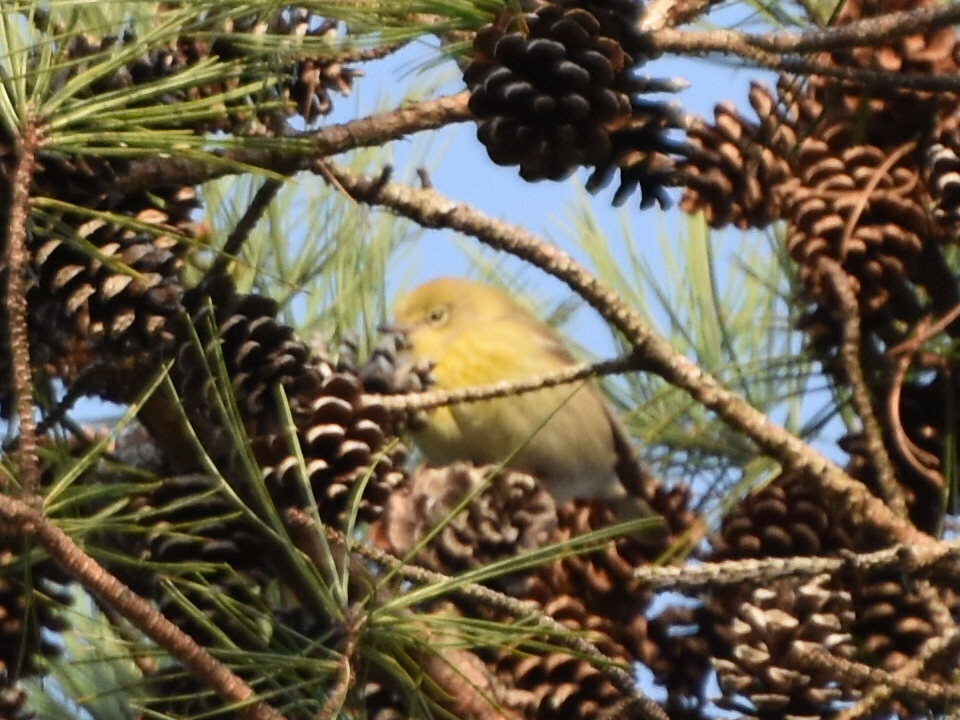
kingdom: Animalia
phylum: Chordata
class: Aves
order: Passeriformes
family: Parulidae
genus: Setophaga
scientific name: Setophaga pinus
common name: Pine warbler
